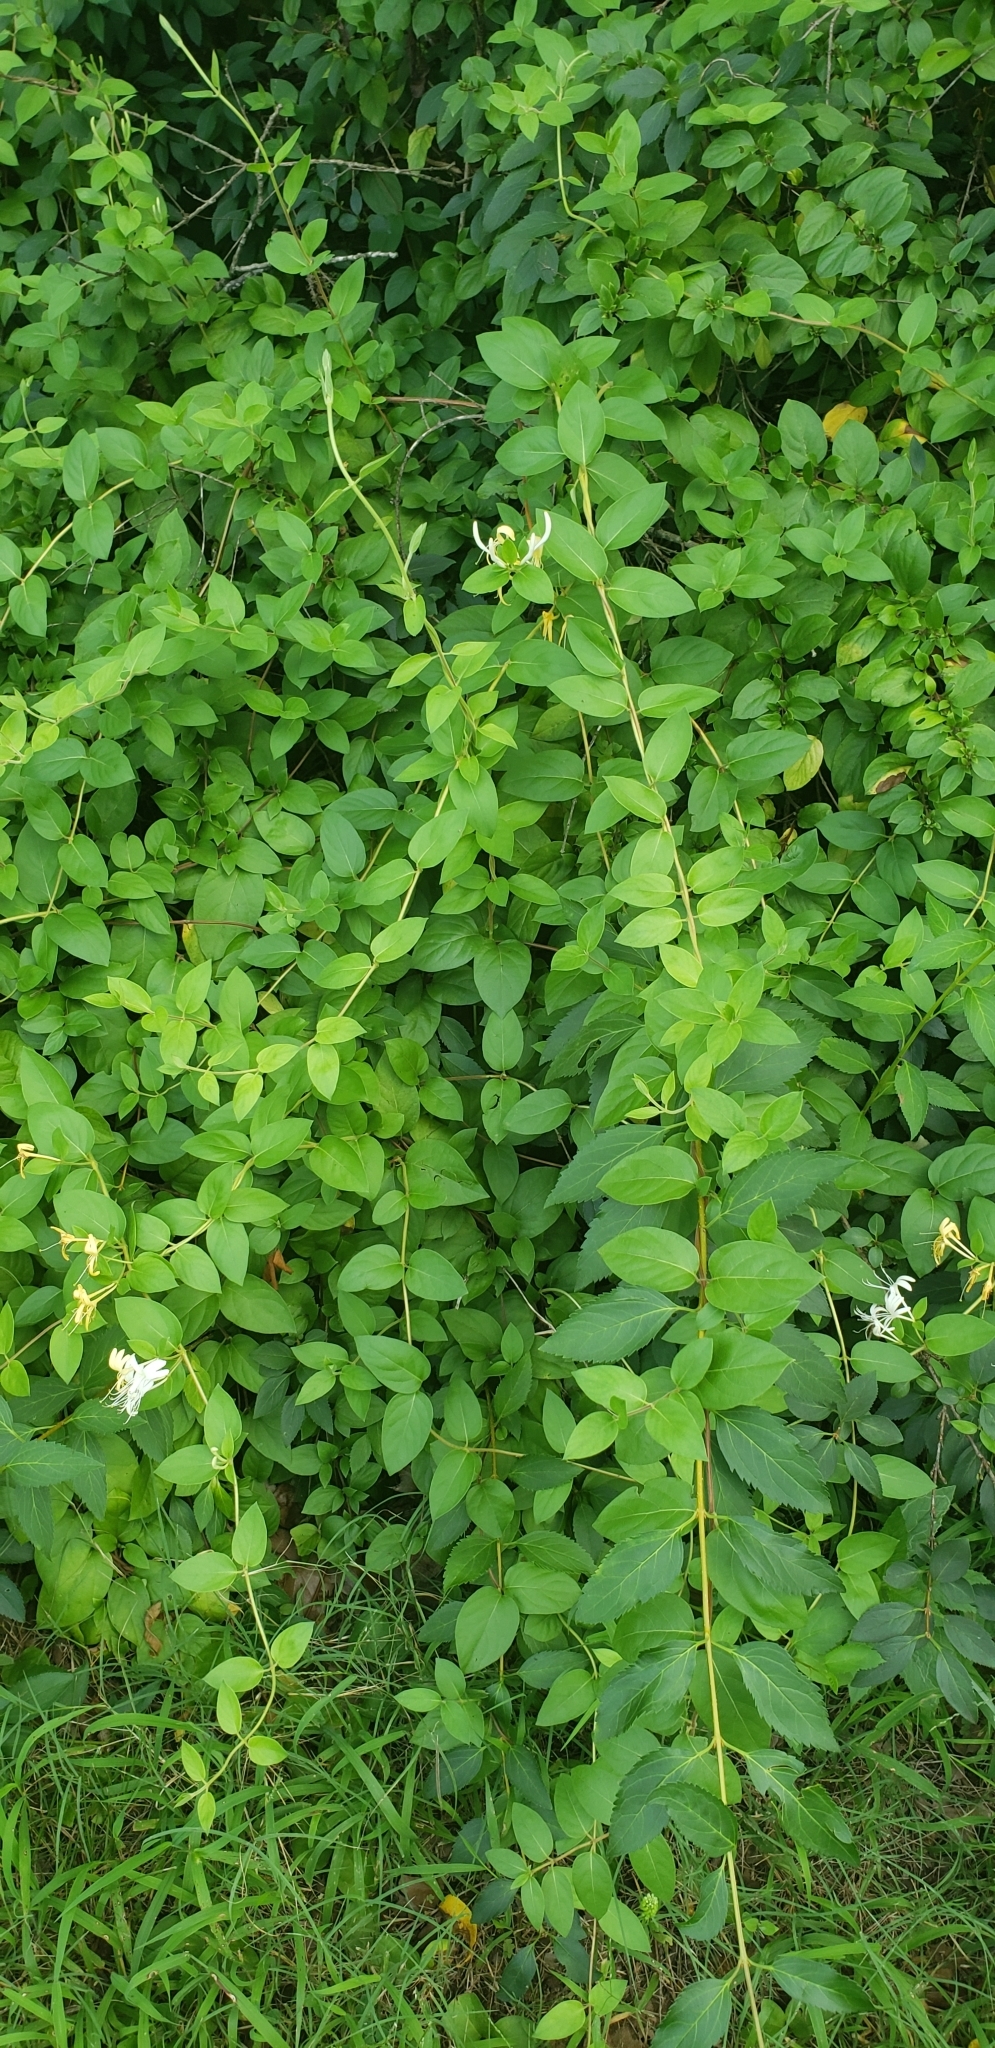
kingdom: Plantae
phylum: Tracheophyta
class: Magnoliopsida
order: Dipsacales
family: Caprifoliaceae
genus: Lonicera
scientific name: Lonicera japonica
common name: Japanese honeysuckle
